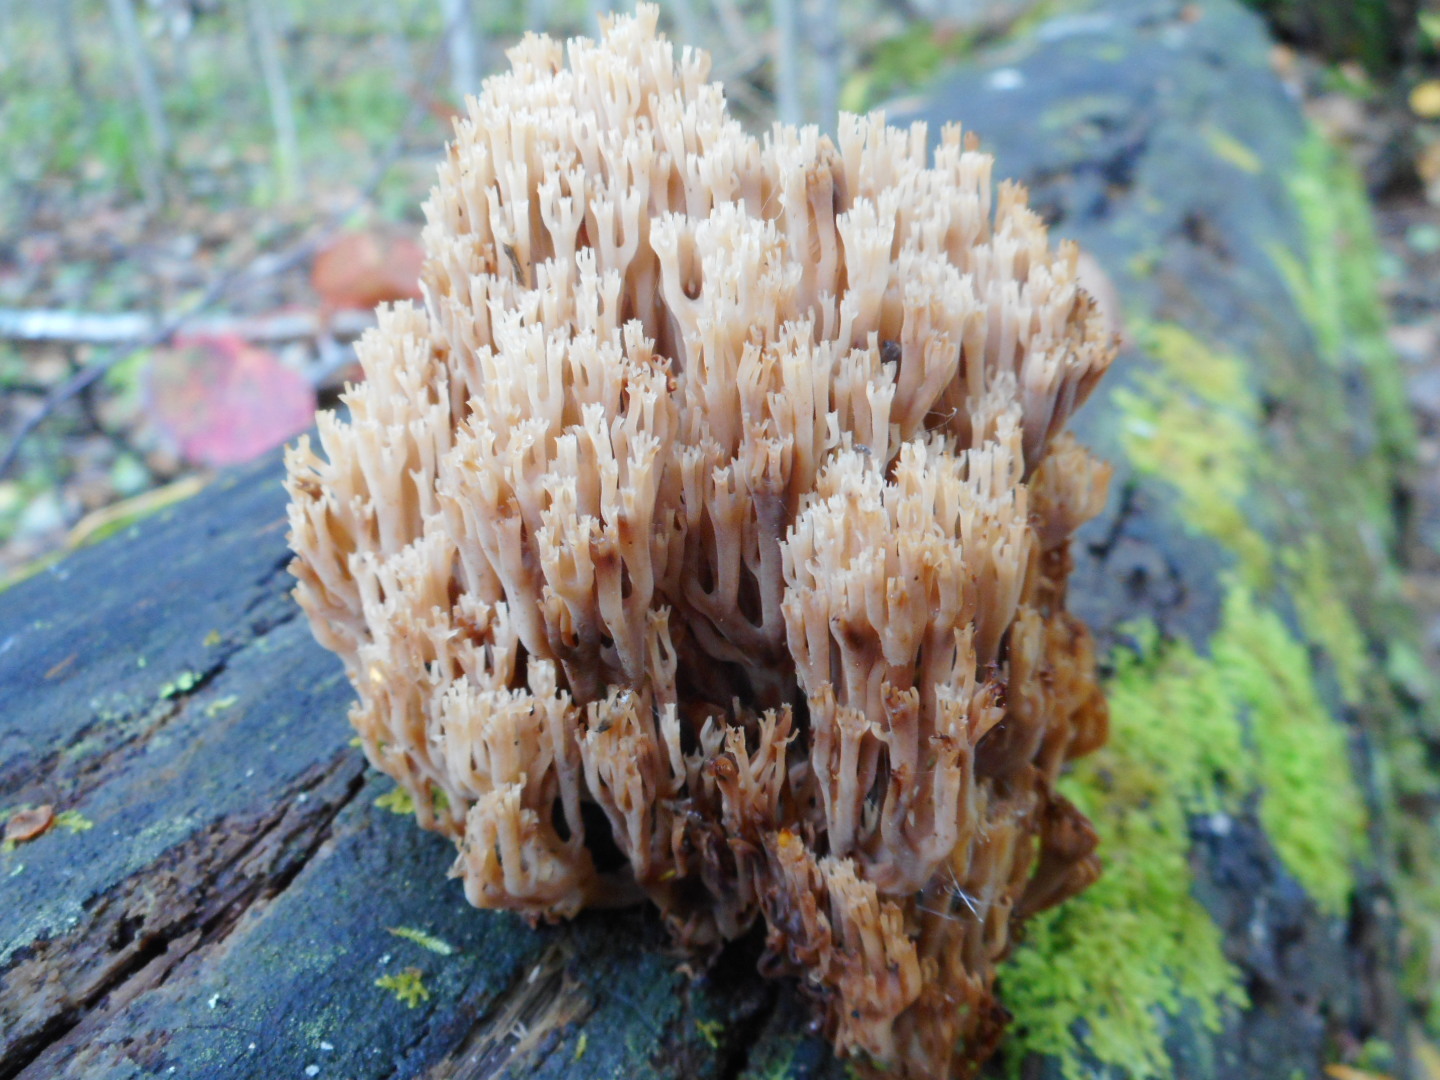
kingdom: Fungi
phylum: Basidiomycota
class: Agaricomycetes
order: Russulales
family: Auriscalpiaceae
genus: Artomyces
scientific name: Artomyces pyxidatus
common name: Crown-tipped coral fungus
